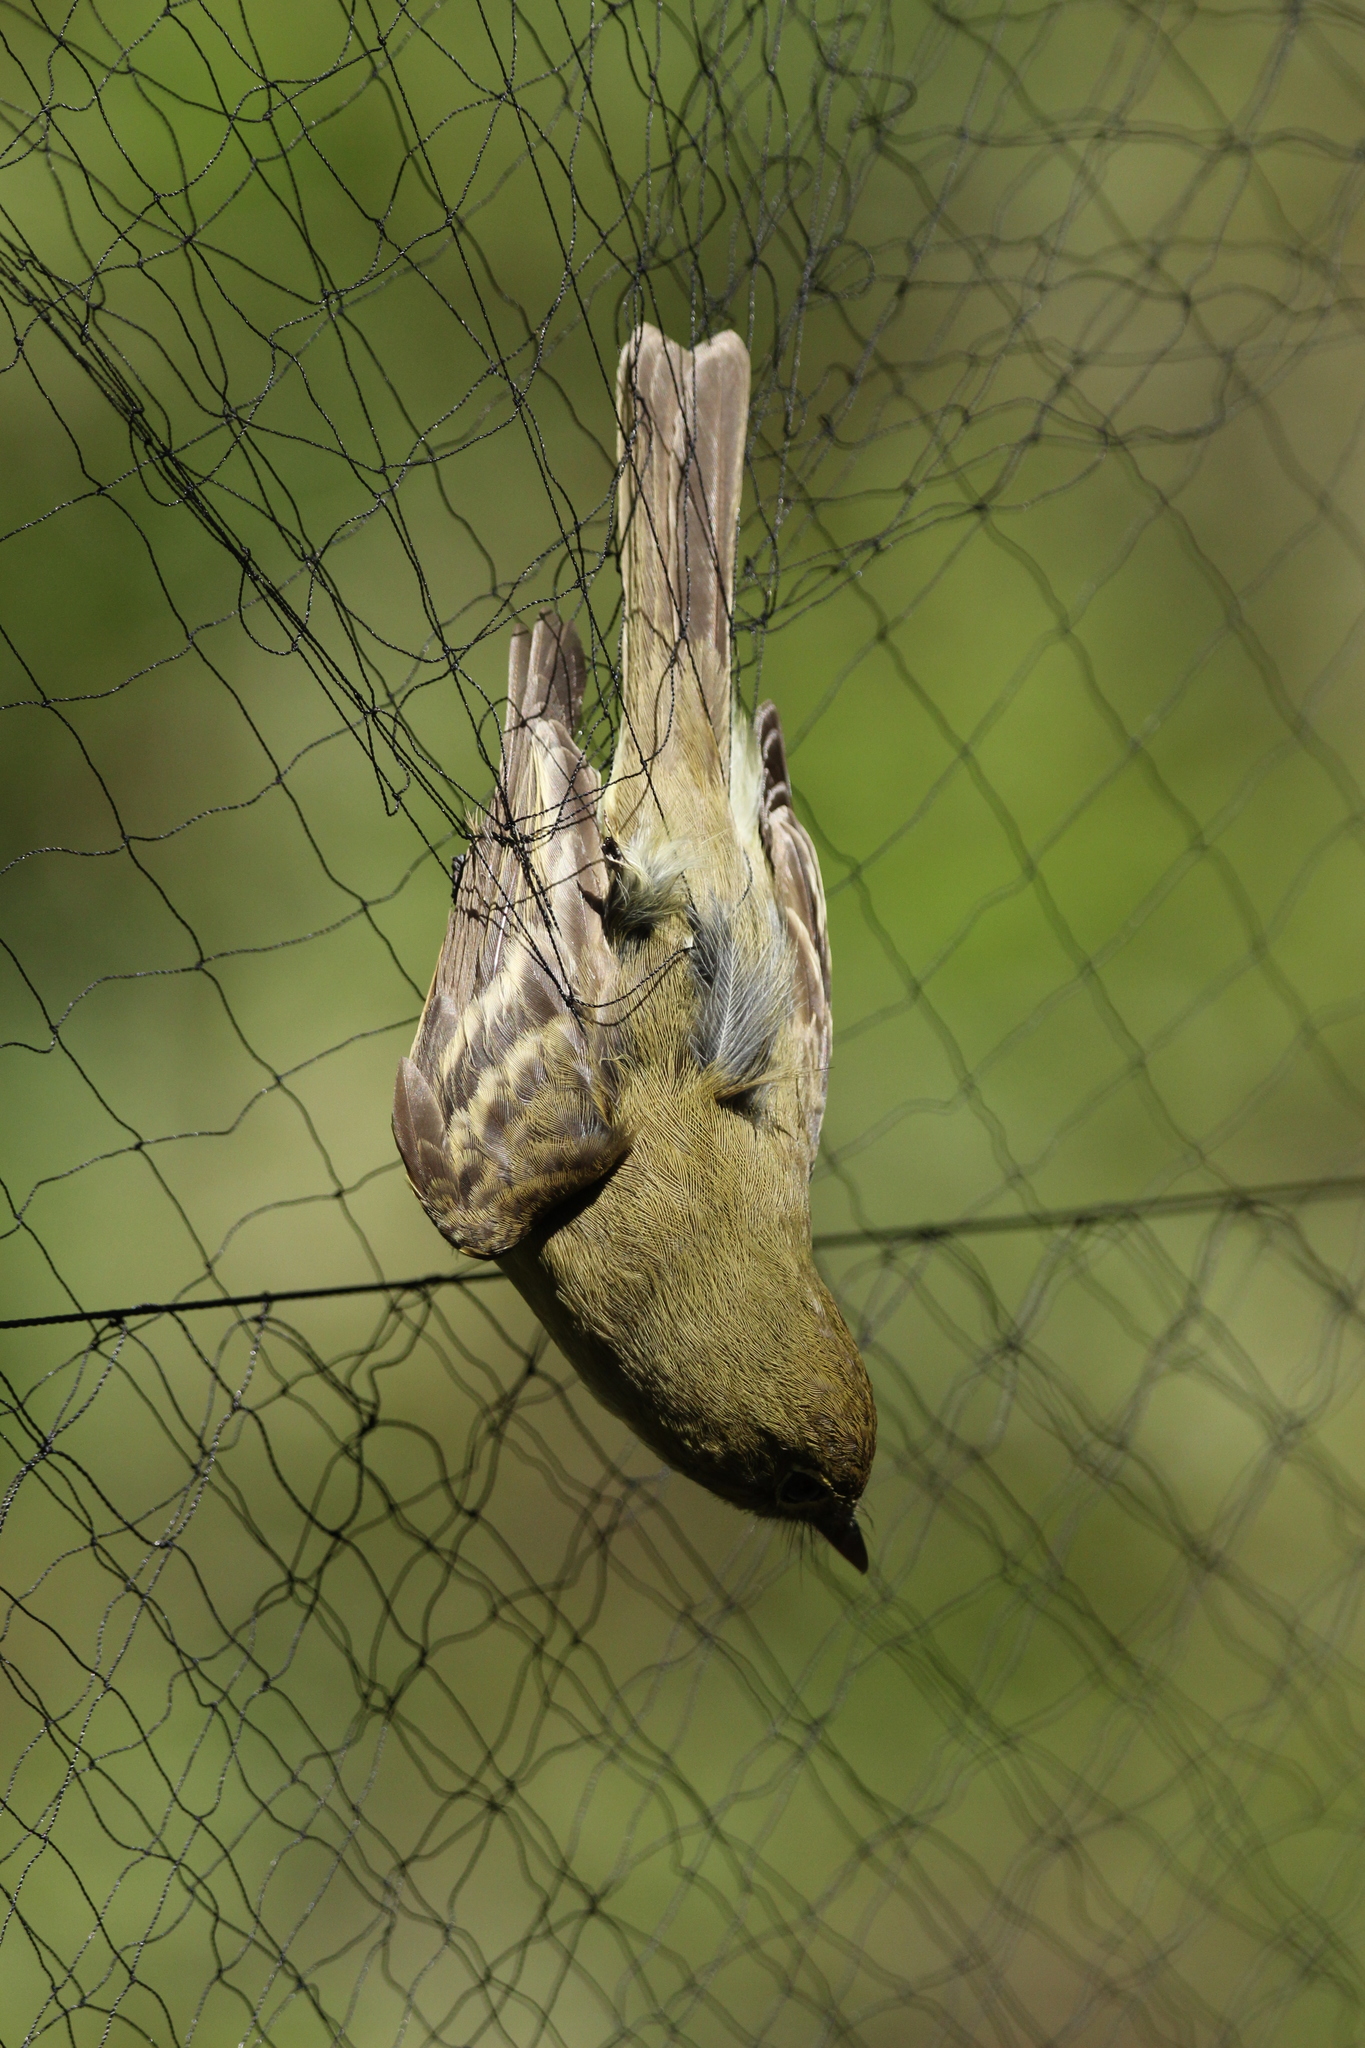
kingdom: Animalia
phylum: Chordata
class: Aves
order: Passeriformes
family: Tyrannidae
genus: Empidonax
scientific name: Empidonax difficilis
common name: Pacific-slope flycatcher
